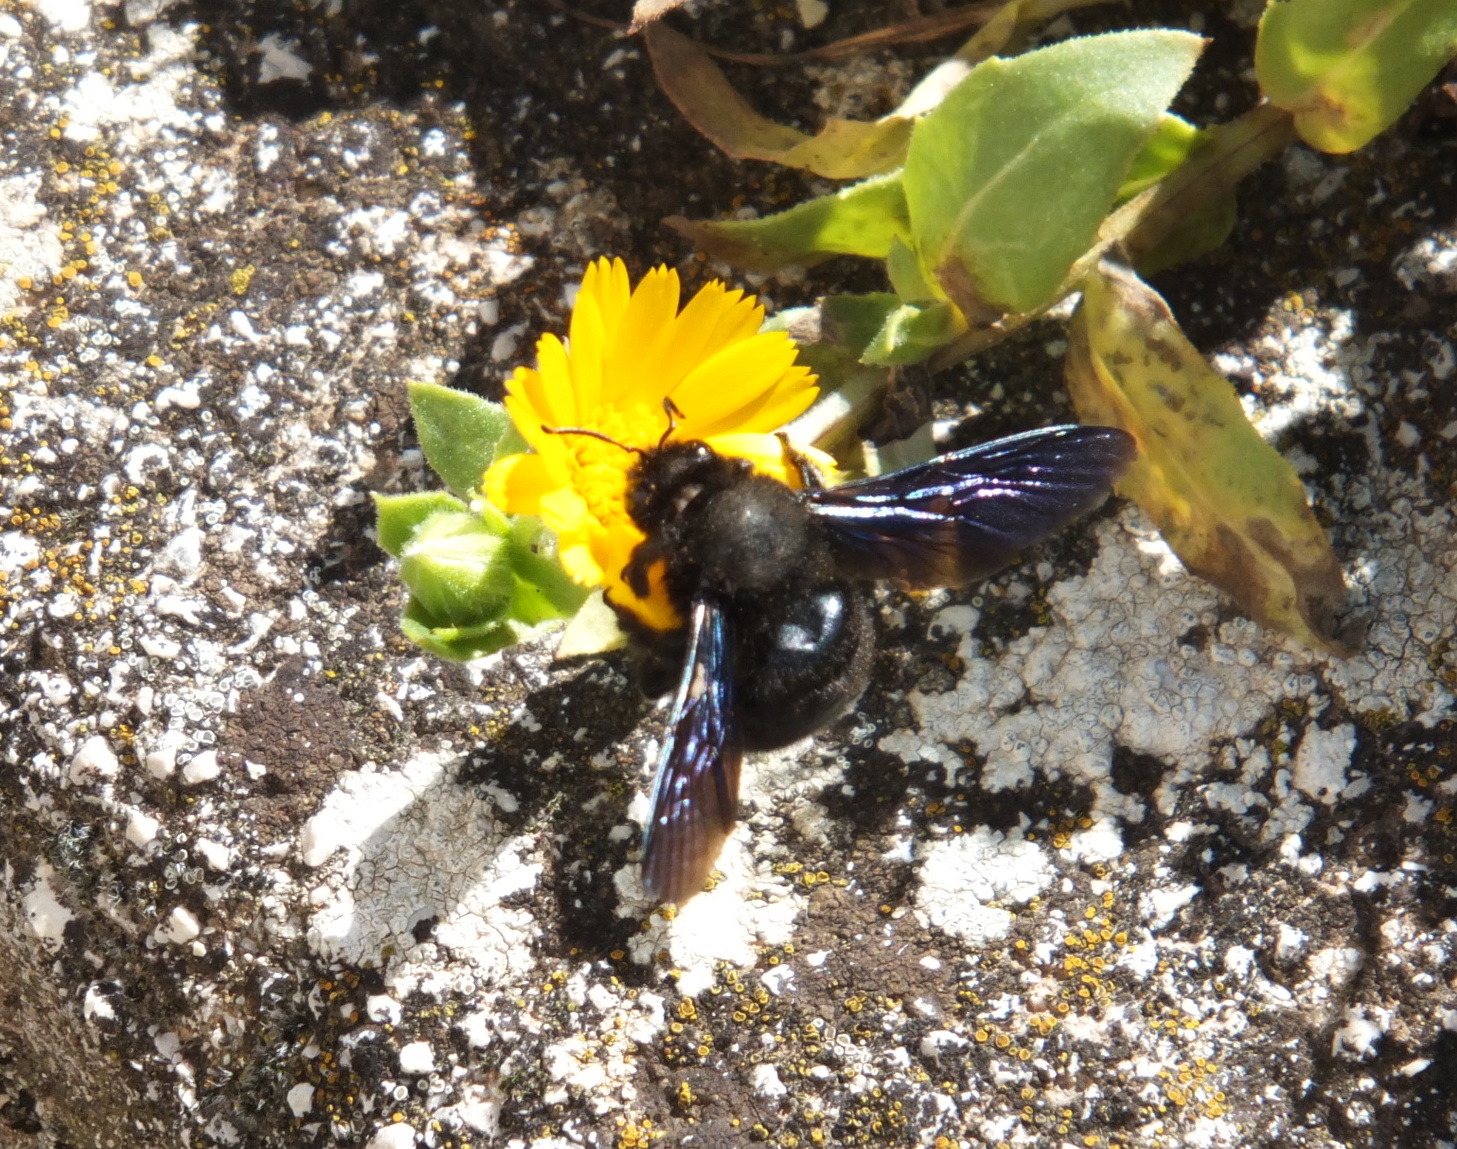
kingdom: Animalia
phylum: Arthropoda
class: Insecta
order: Hymenoptera
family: Apidae
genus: Xylocopa
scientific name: Xylocopa violacea
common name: Violet carpenter bee
